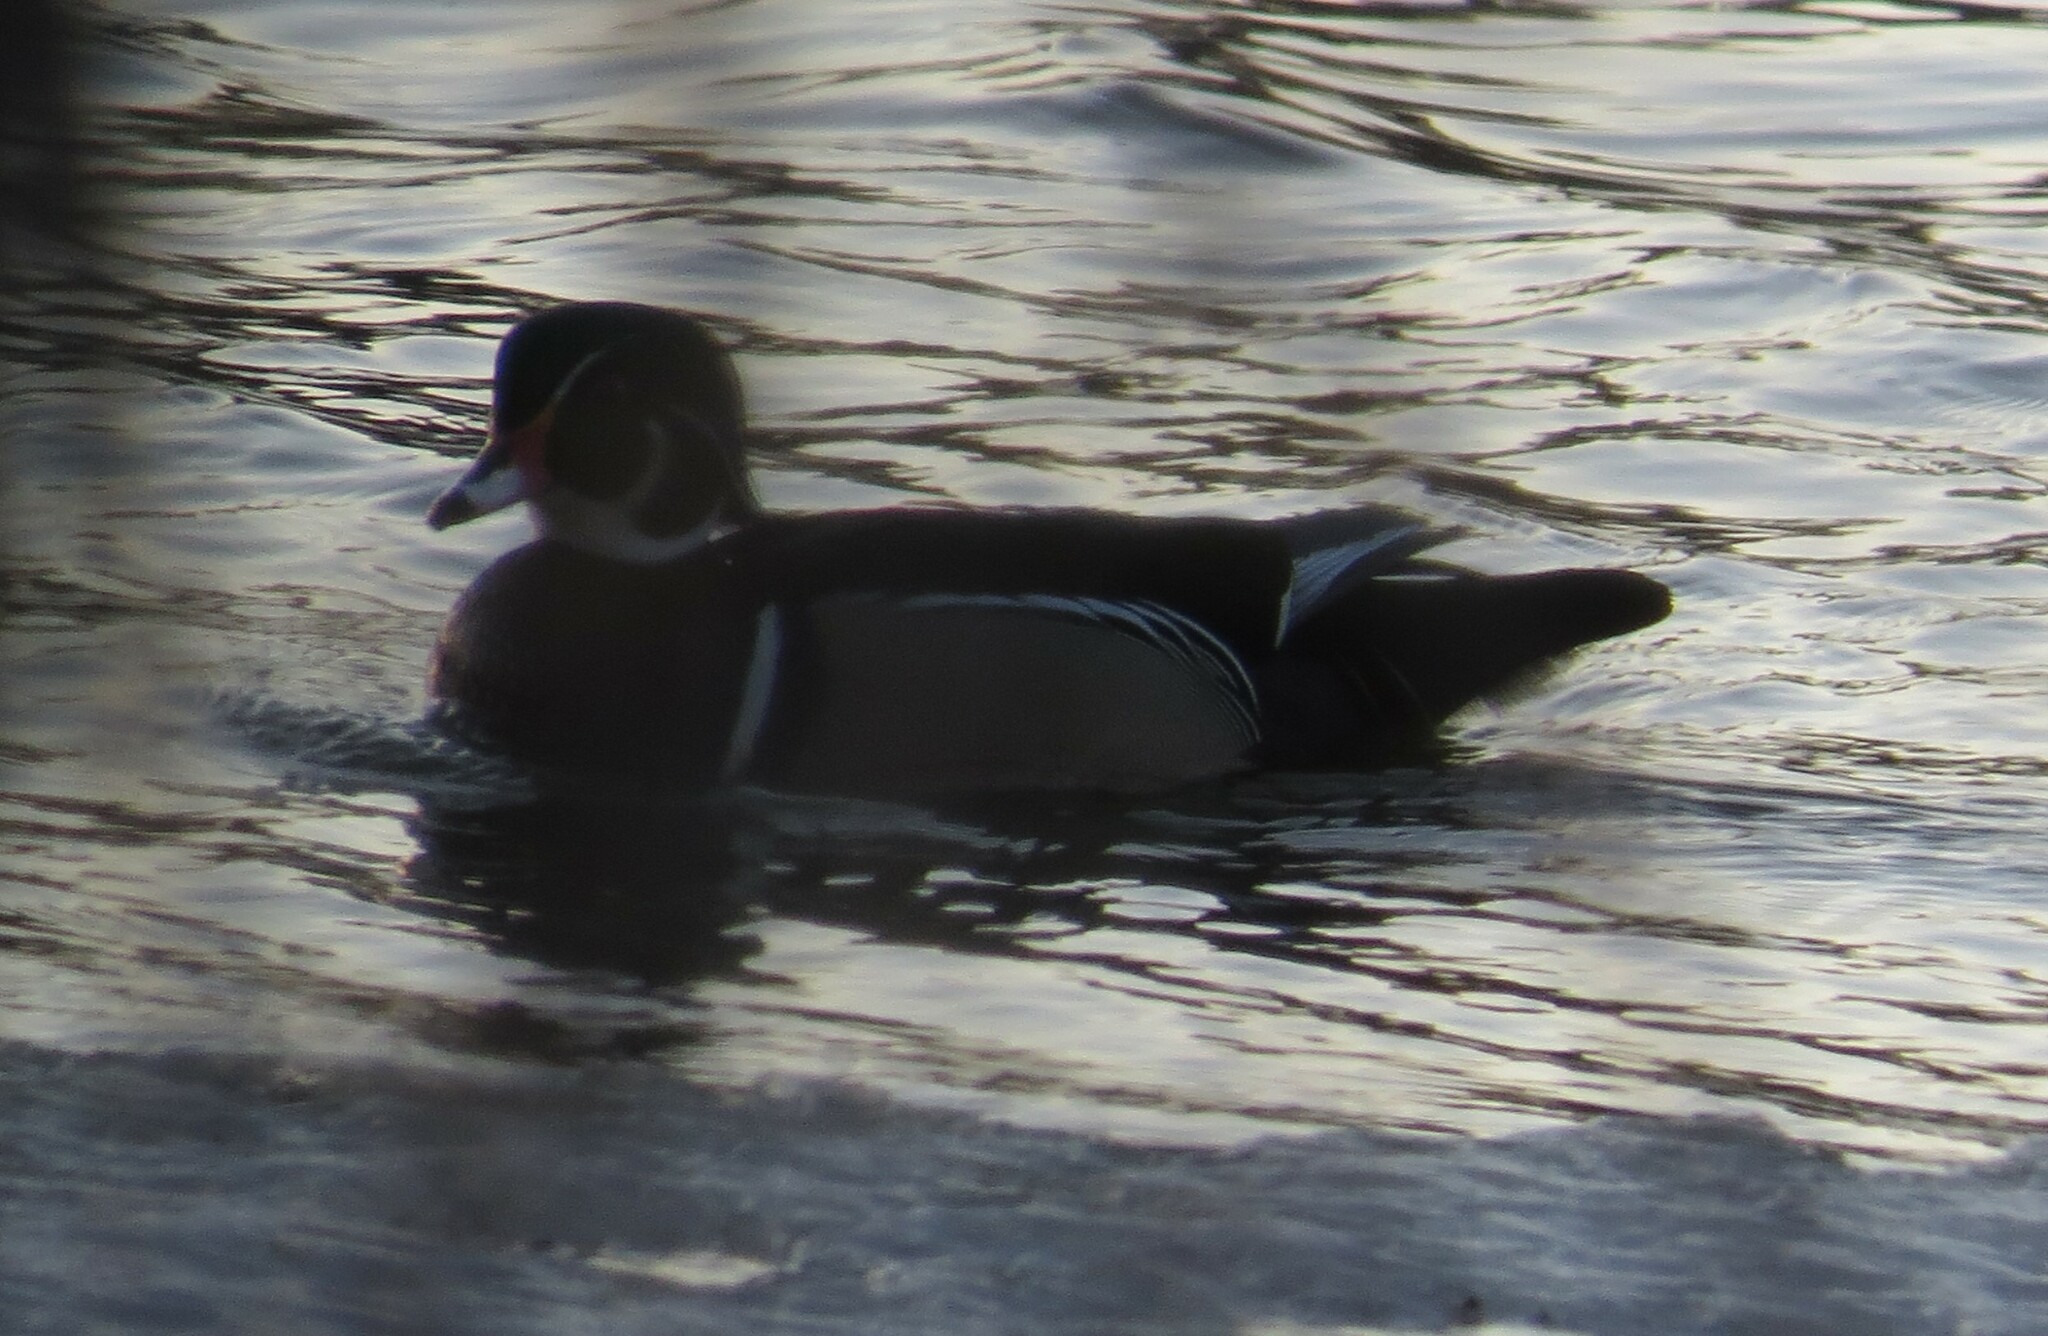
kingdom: Animalia
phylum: Chordata
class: Aves
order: Anseriformes
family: Anatidae
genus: Aix
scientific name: Aix sponsa
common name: Wood duck
